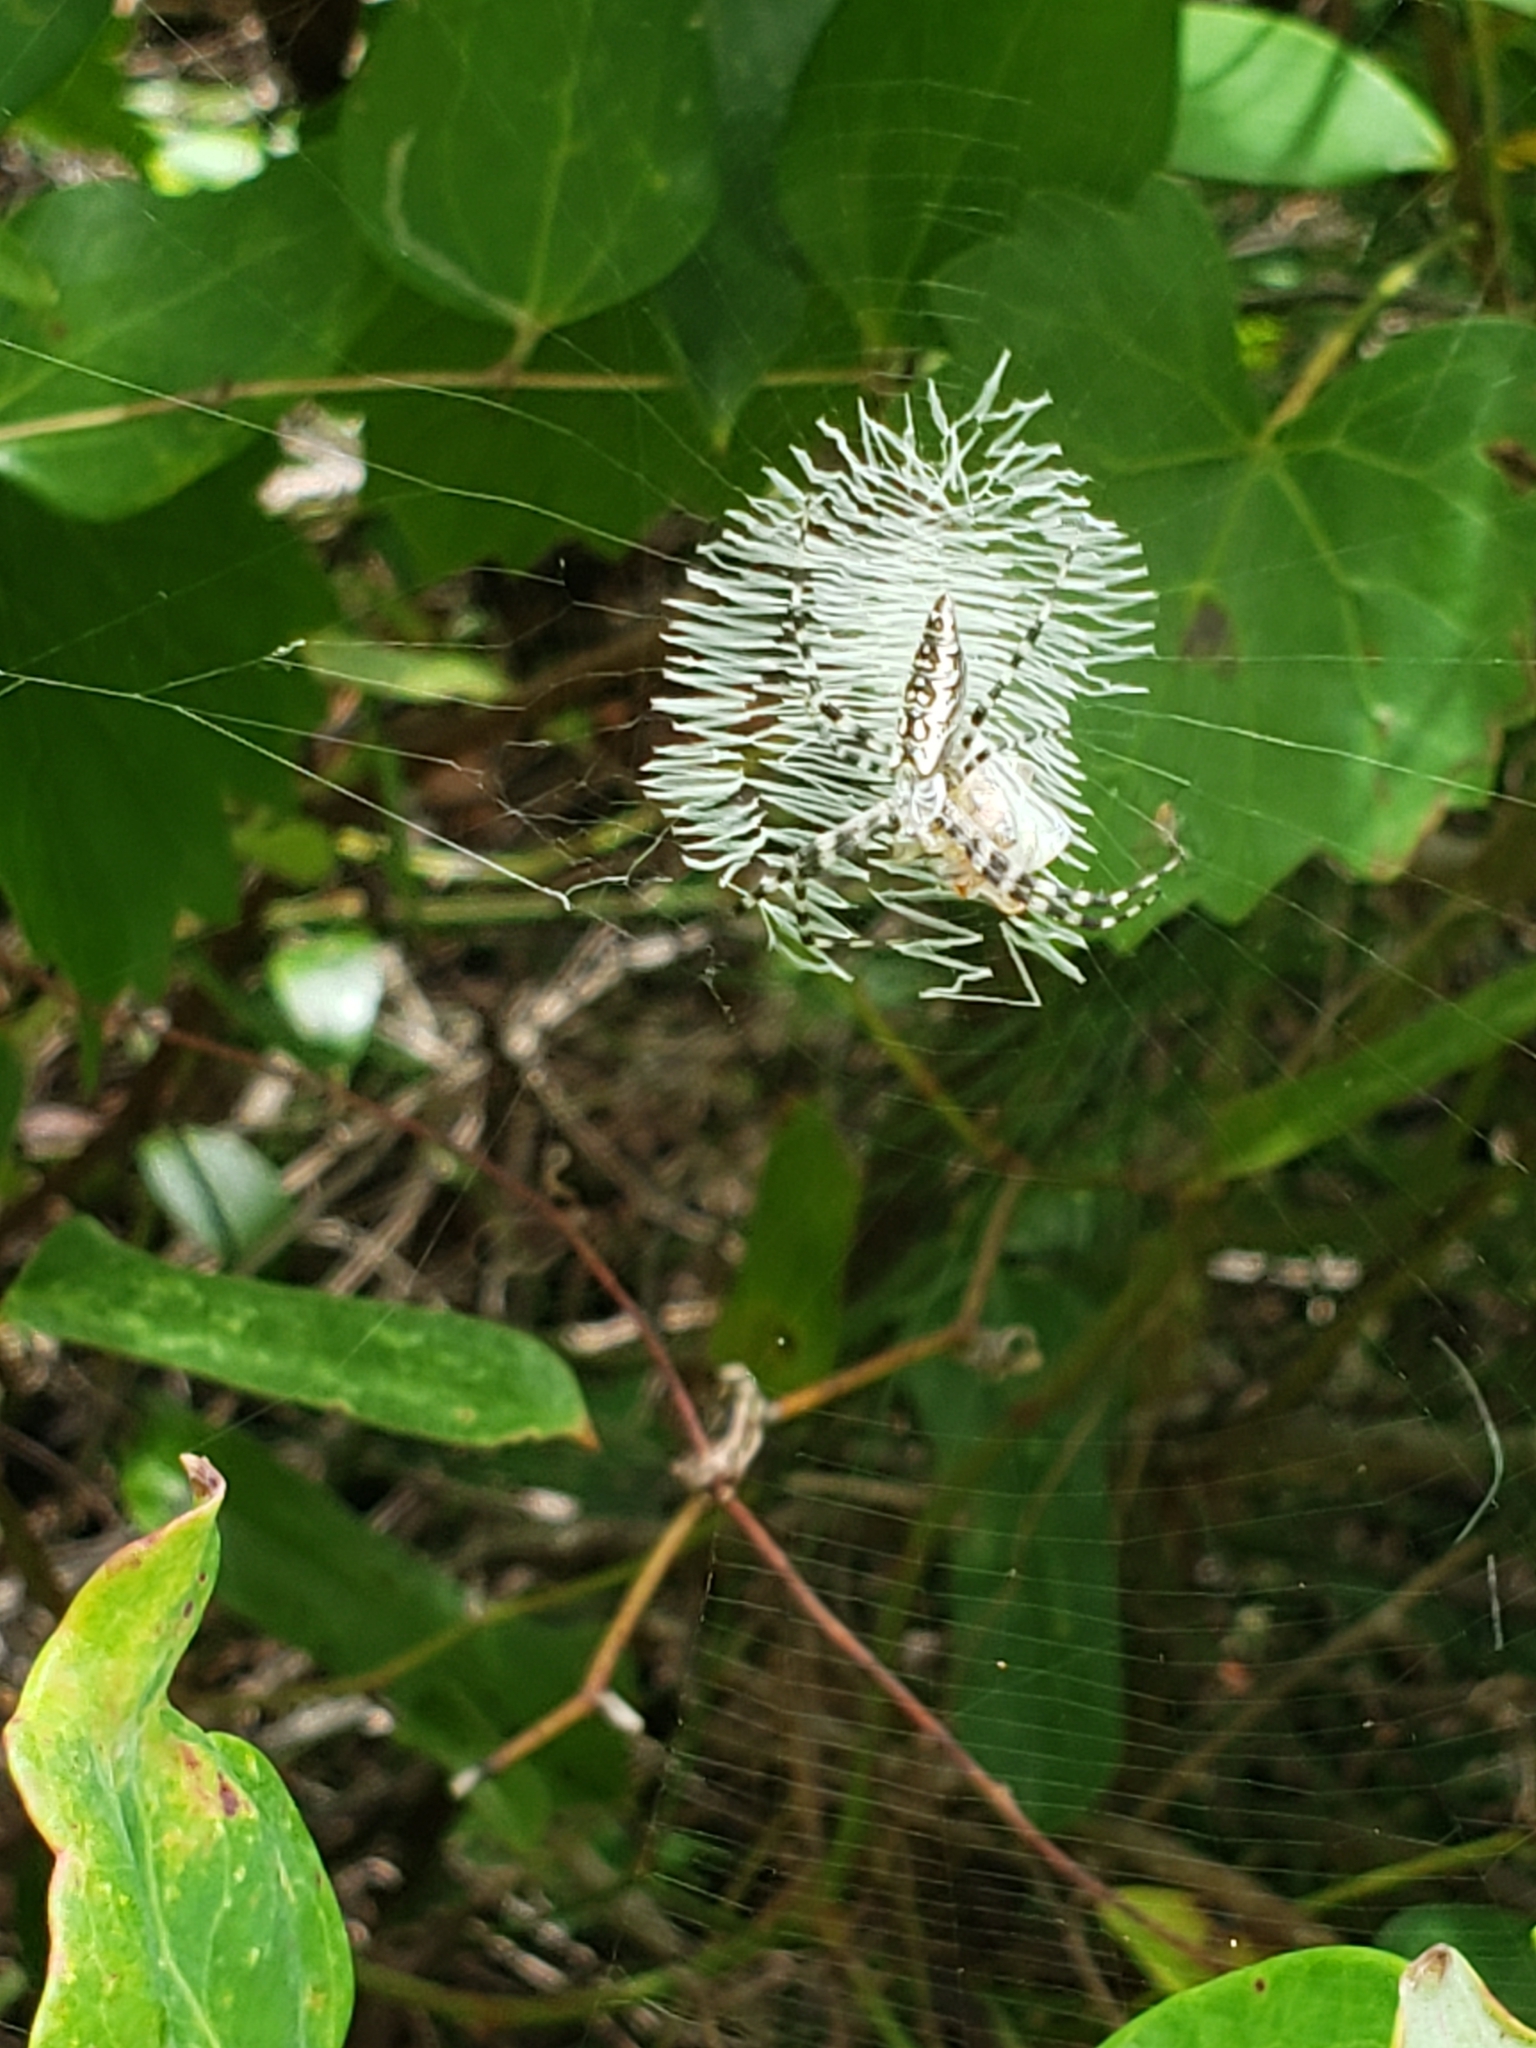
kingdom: Animalia
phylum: Arthropoda
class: Arachnida
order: Araneae
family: Araneidae
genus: Argiope
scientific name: Argiope aurantia
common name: Orb weavers
